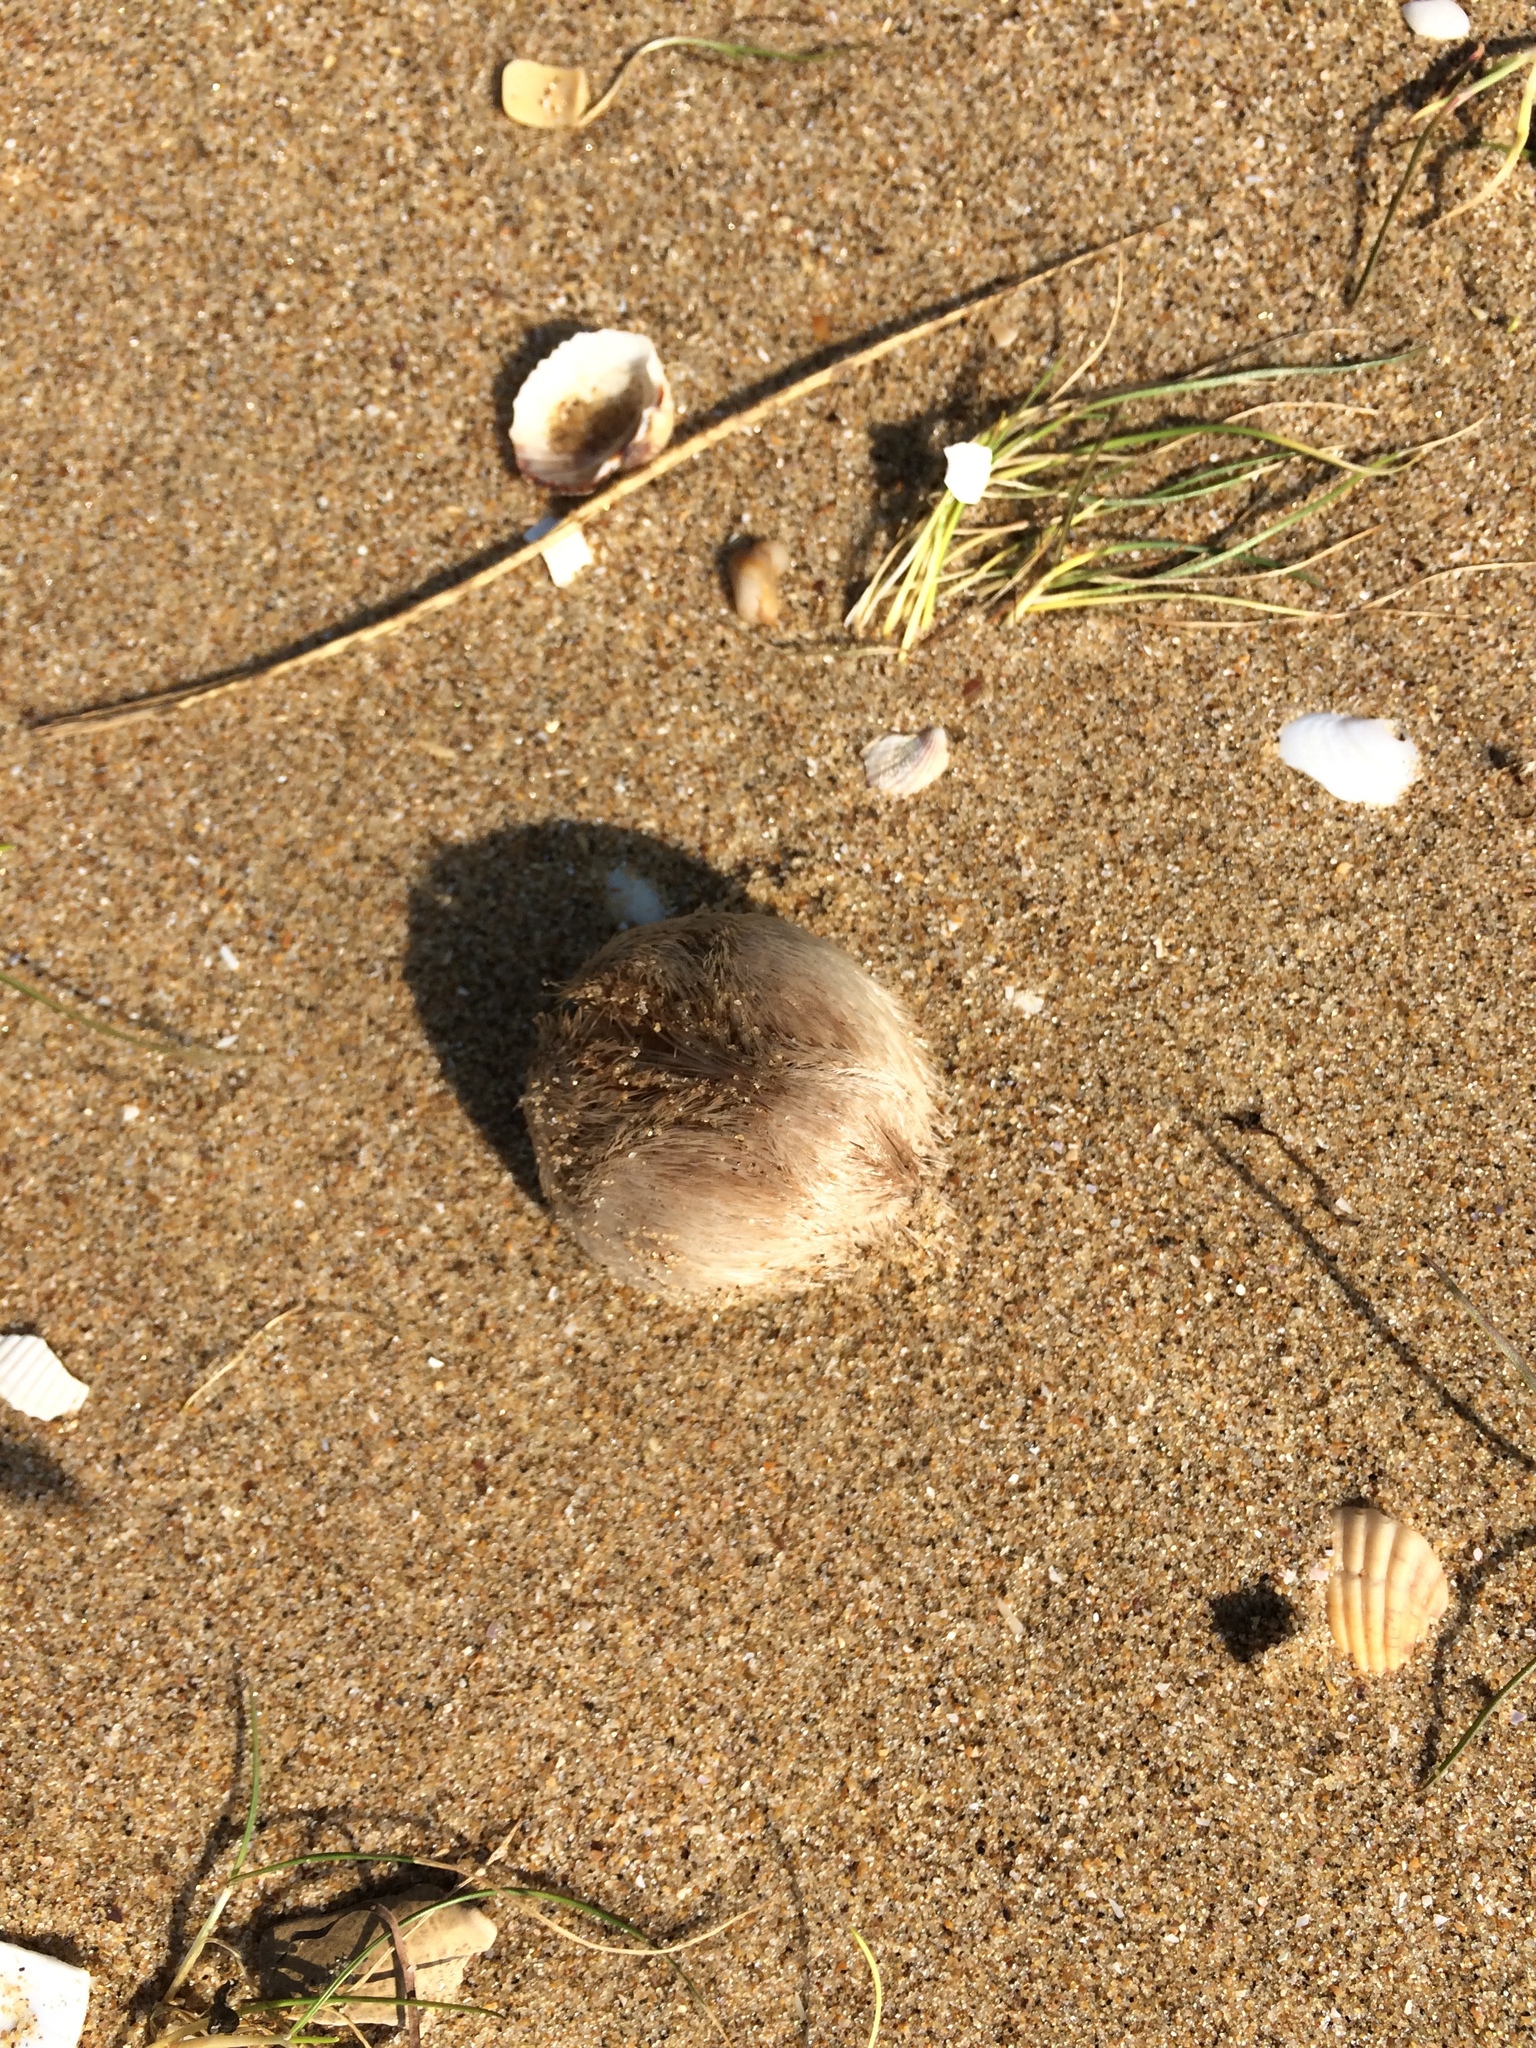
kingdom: Animalia
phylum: Echinodermata
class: Echinoidea
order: Spatangoida
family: Loveniidae
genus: Echinocardium
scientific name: Echinocardium cordatum
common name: Heart-urchin
